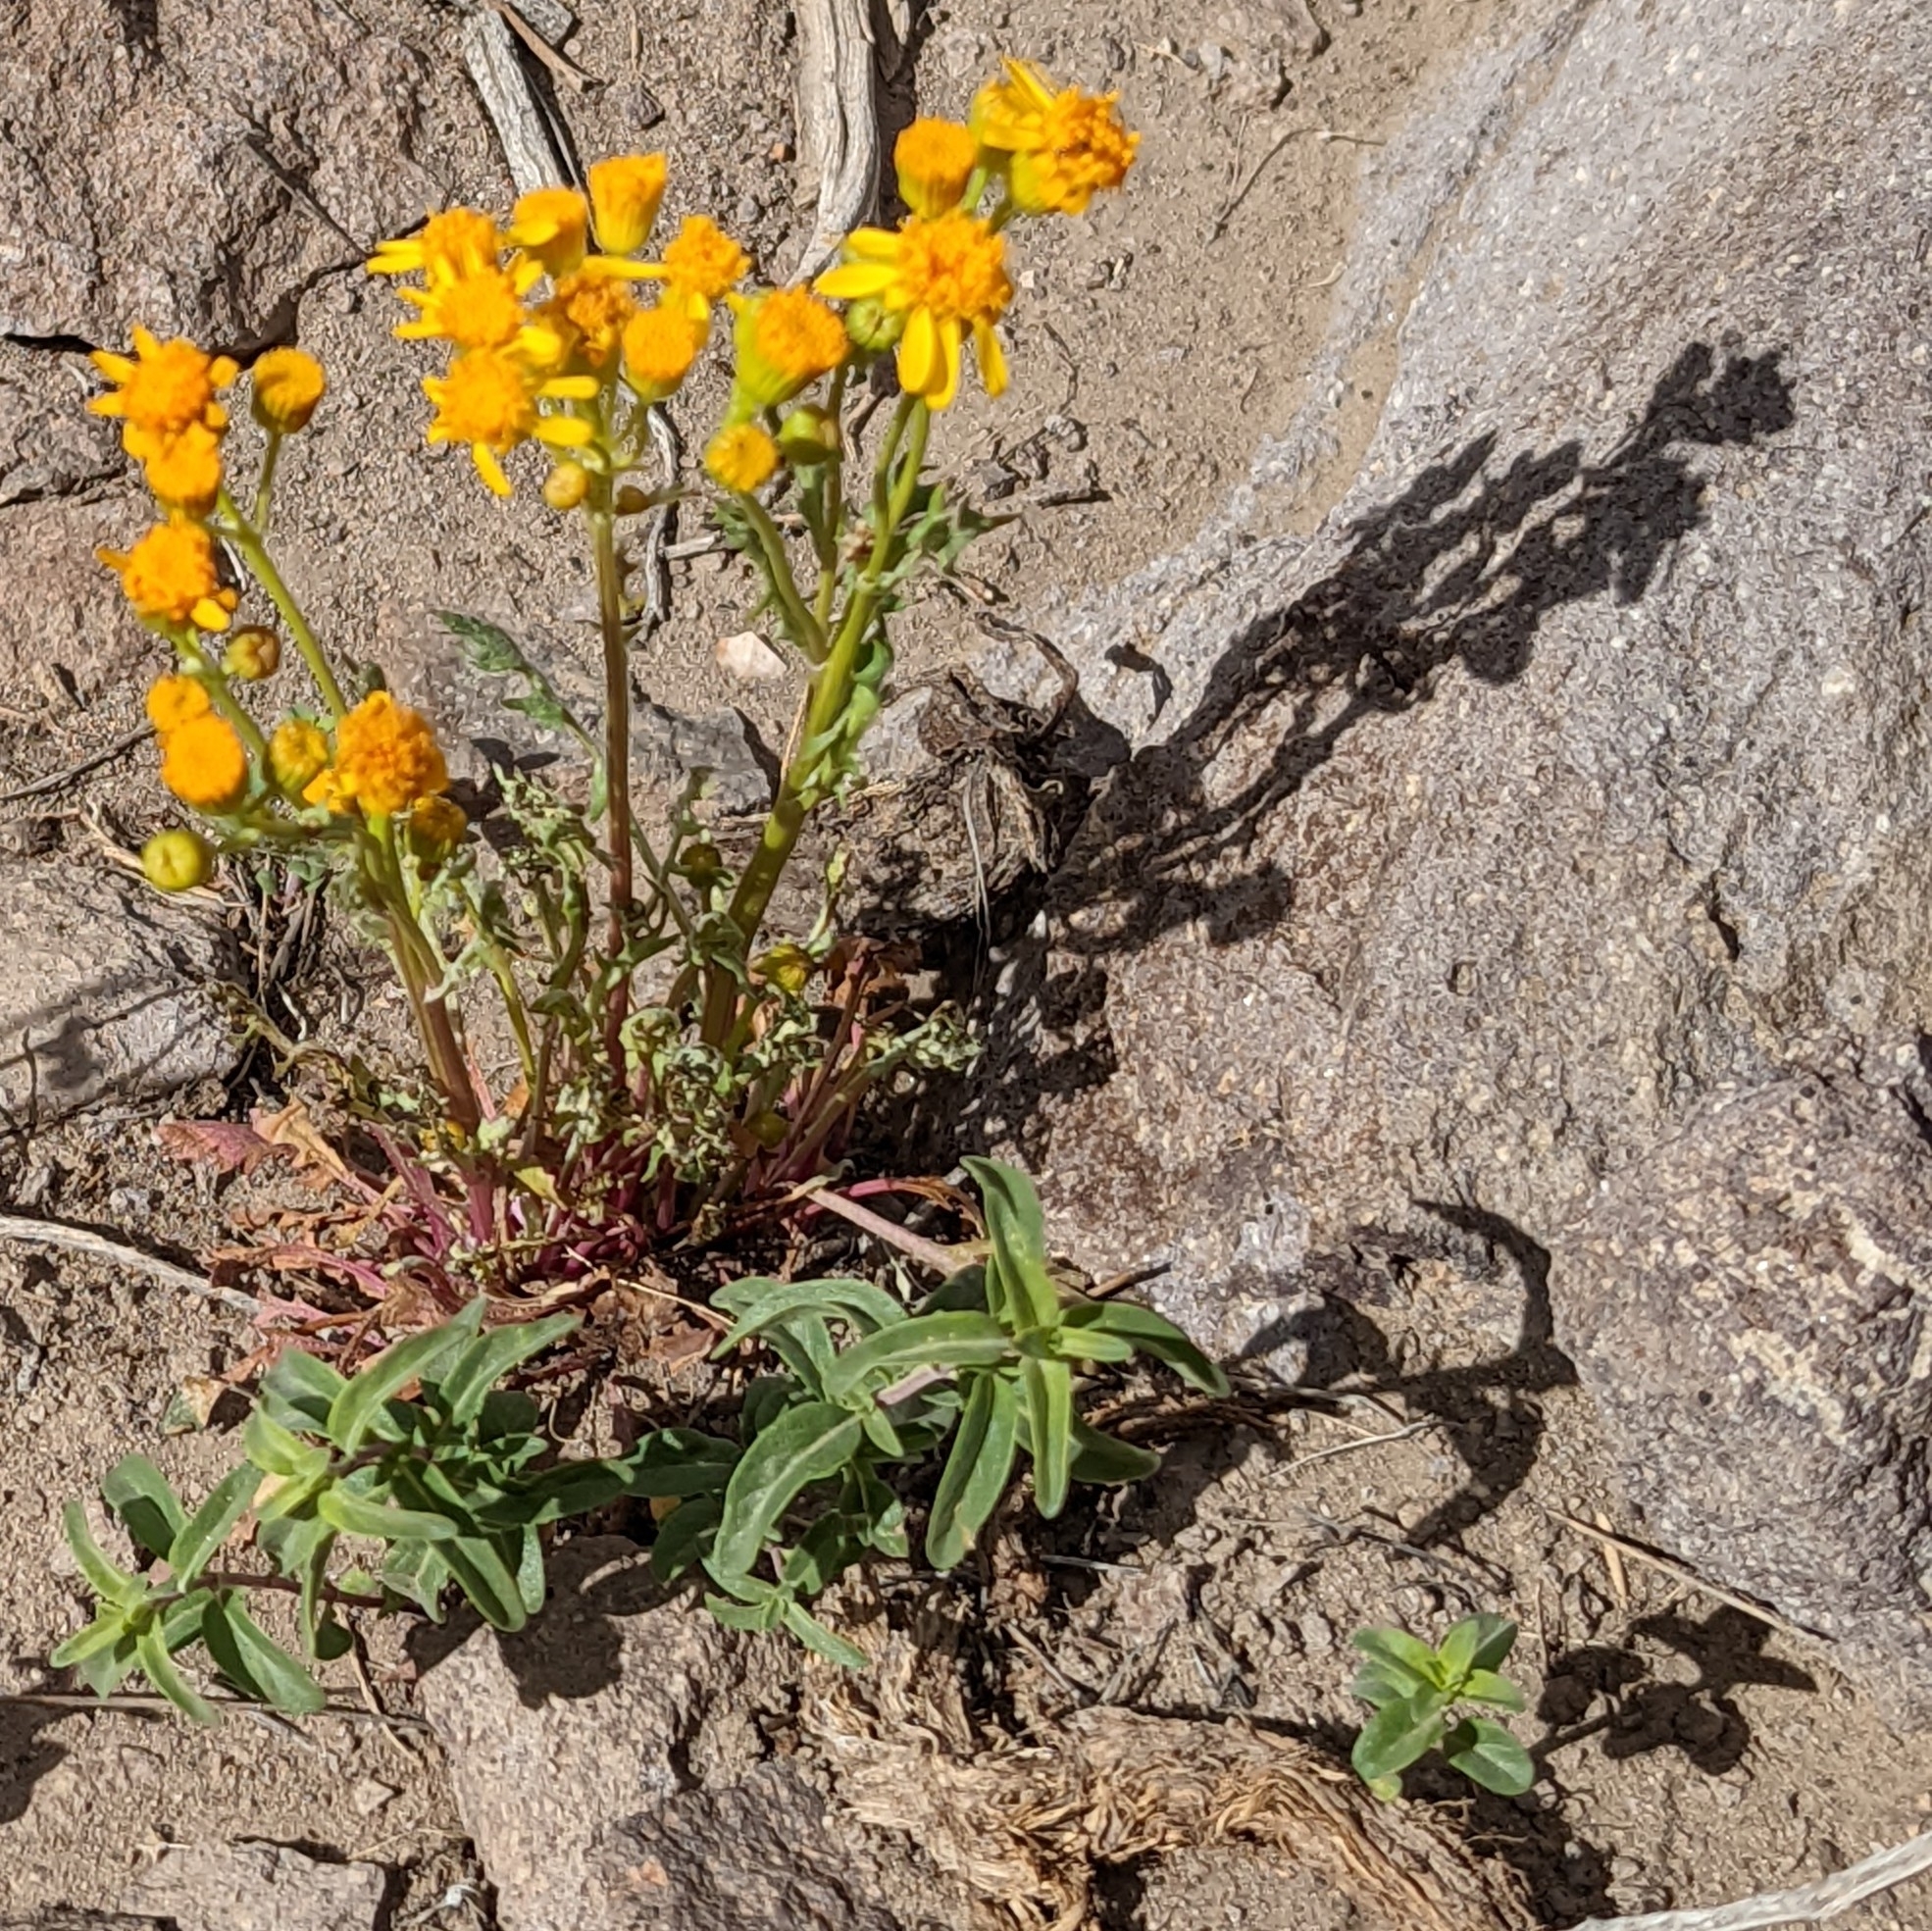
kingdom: Plantae
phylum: Tracheophyta
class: Magnoliopsida
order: Asterales
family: Asteraceae
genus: Packera
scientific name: Packera multilobata
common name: Lobe-leaf groundsel
